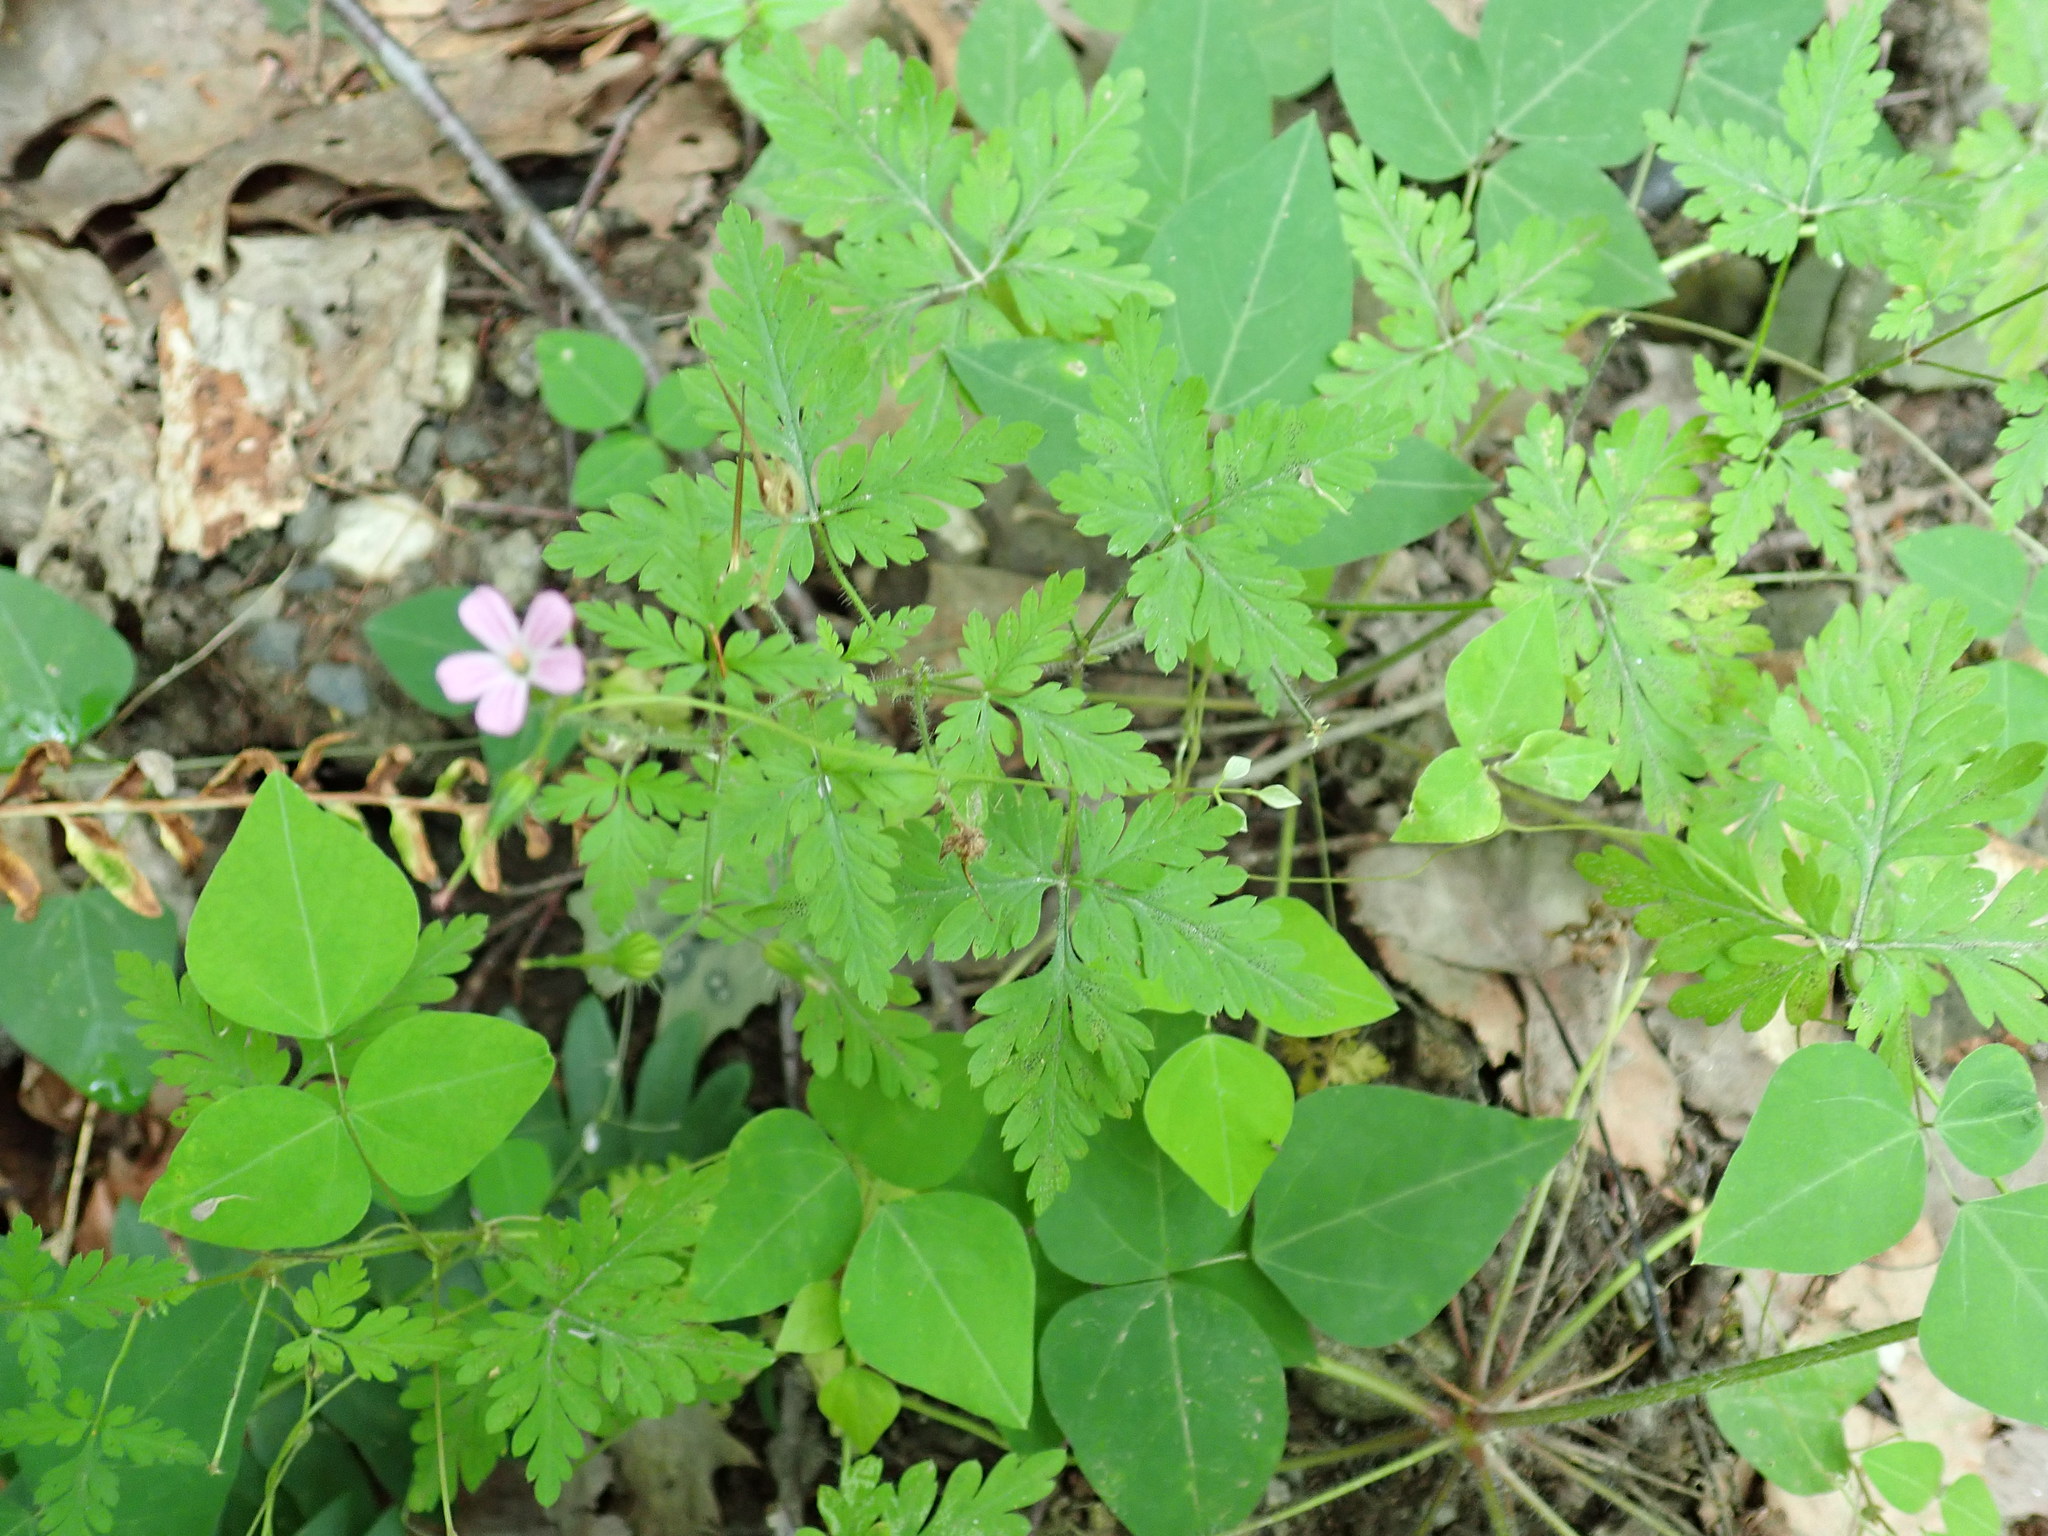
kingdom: Plantae
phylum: Tracheophyta
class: Magnoliopsida
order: Geraniales
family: Geraniaceae
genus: Geranium
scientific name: Geranium robertianum
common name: Herb-robert
